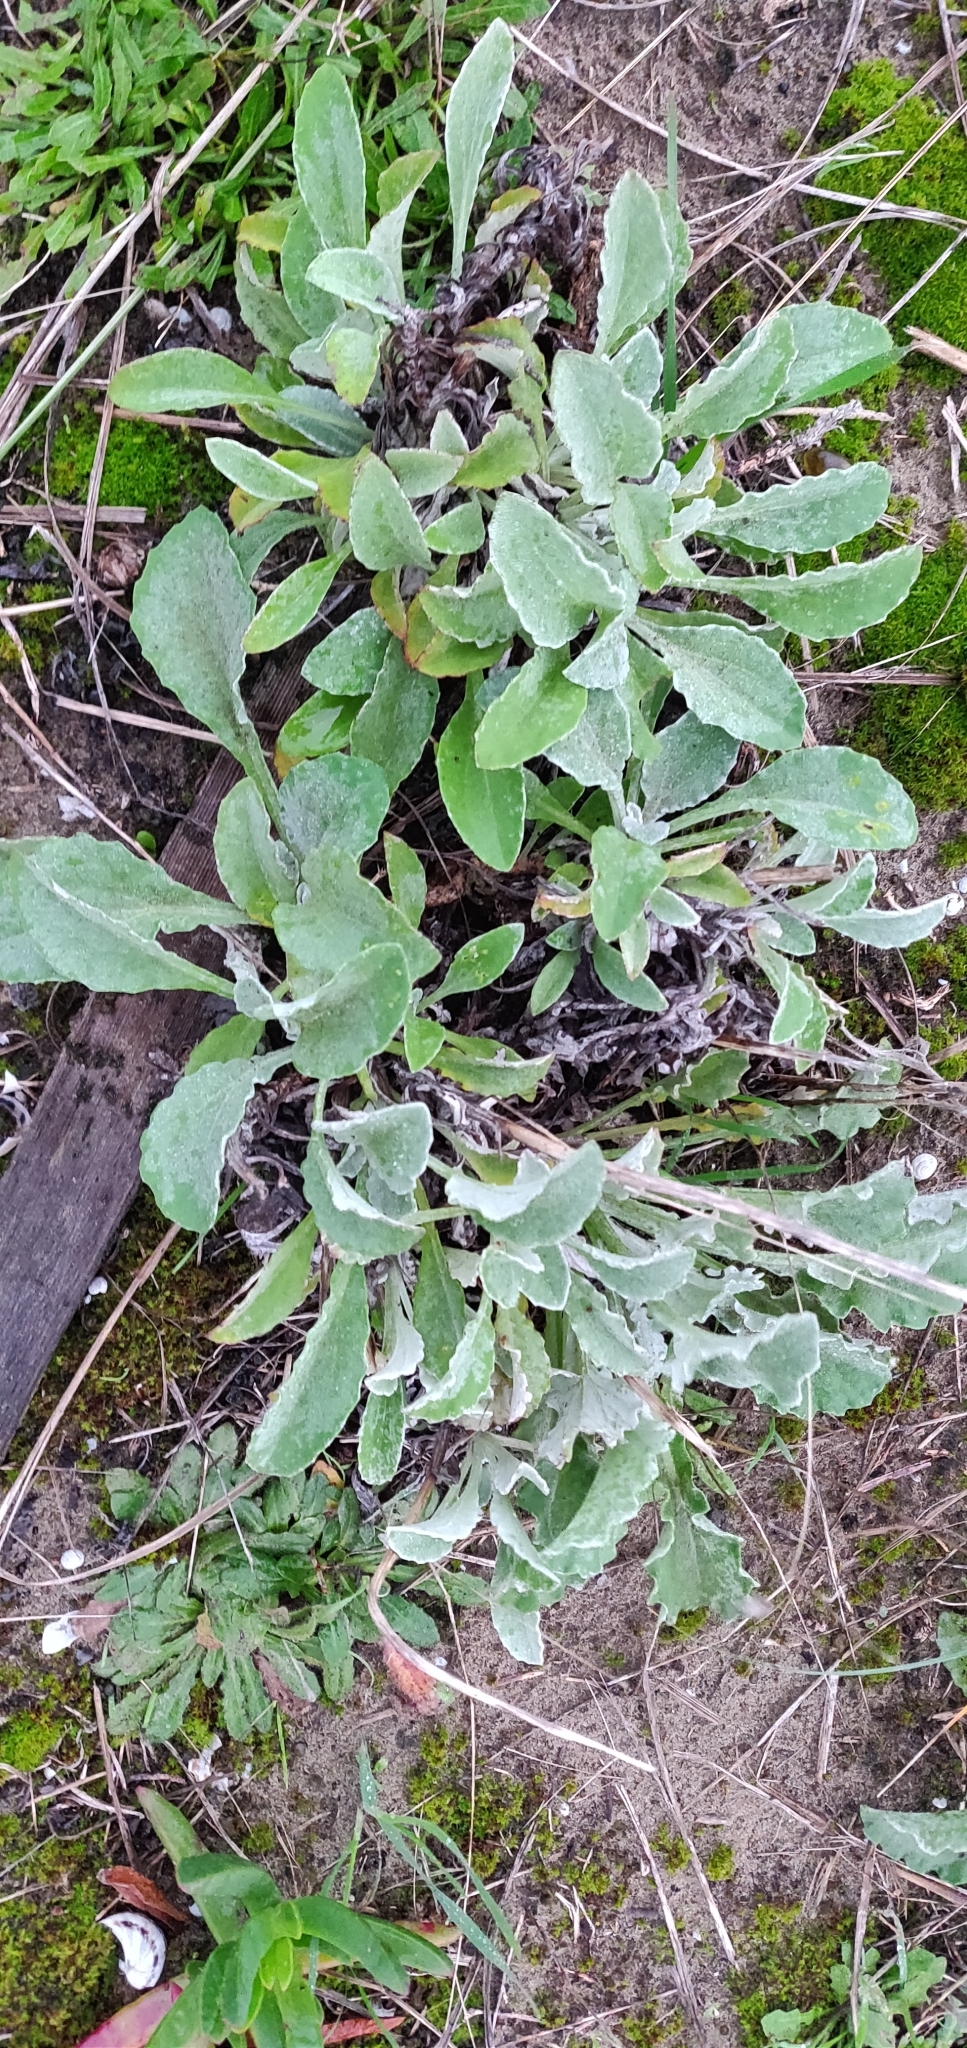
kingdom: Plantae
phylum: Tracheophyta
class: Magnoliopsida
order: Asterales
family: Asteraceae
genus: Gazania
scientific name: Gazania splendens
